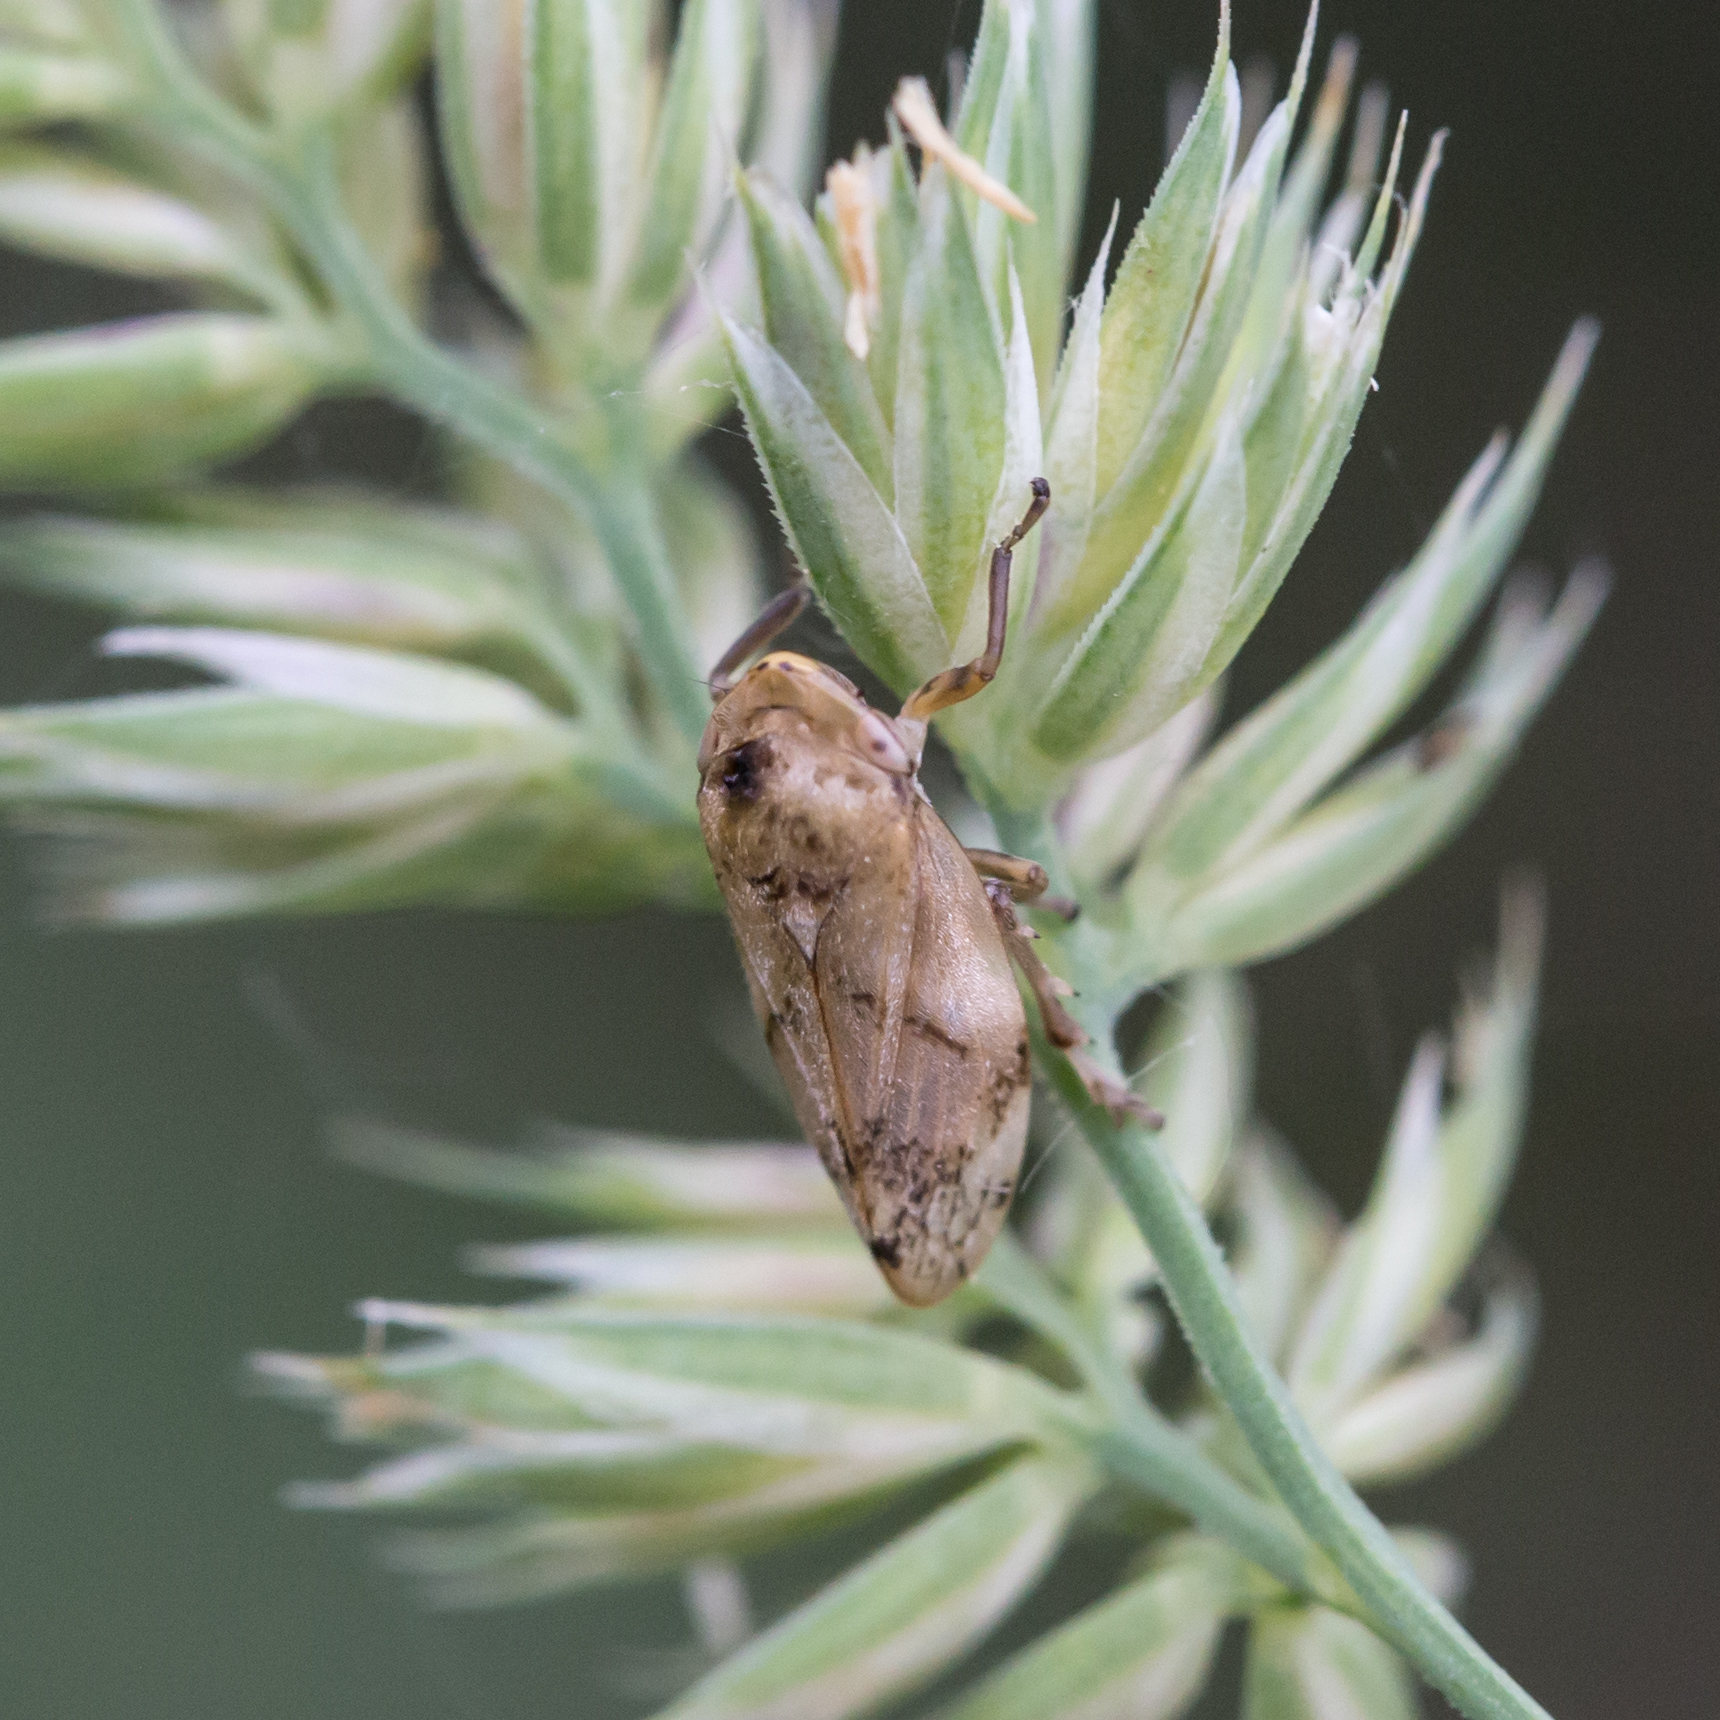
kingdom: Animalia
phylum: Arthropoda
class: Insecta
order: Hemiptera
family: Aphrophoridae
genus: Philaenus
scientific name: Philaenus spumarius
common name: Meadow spittlebug
